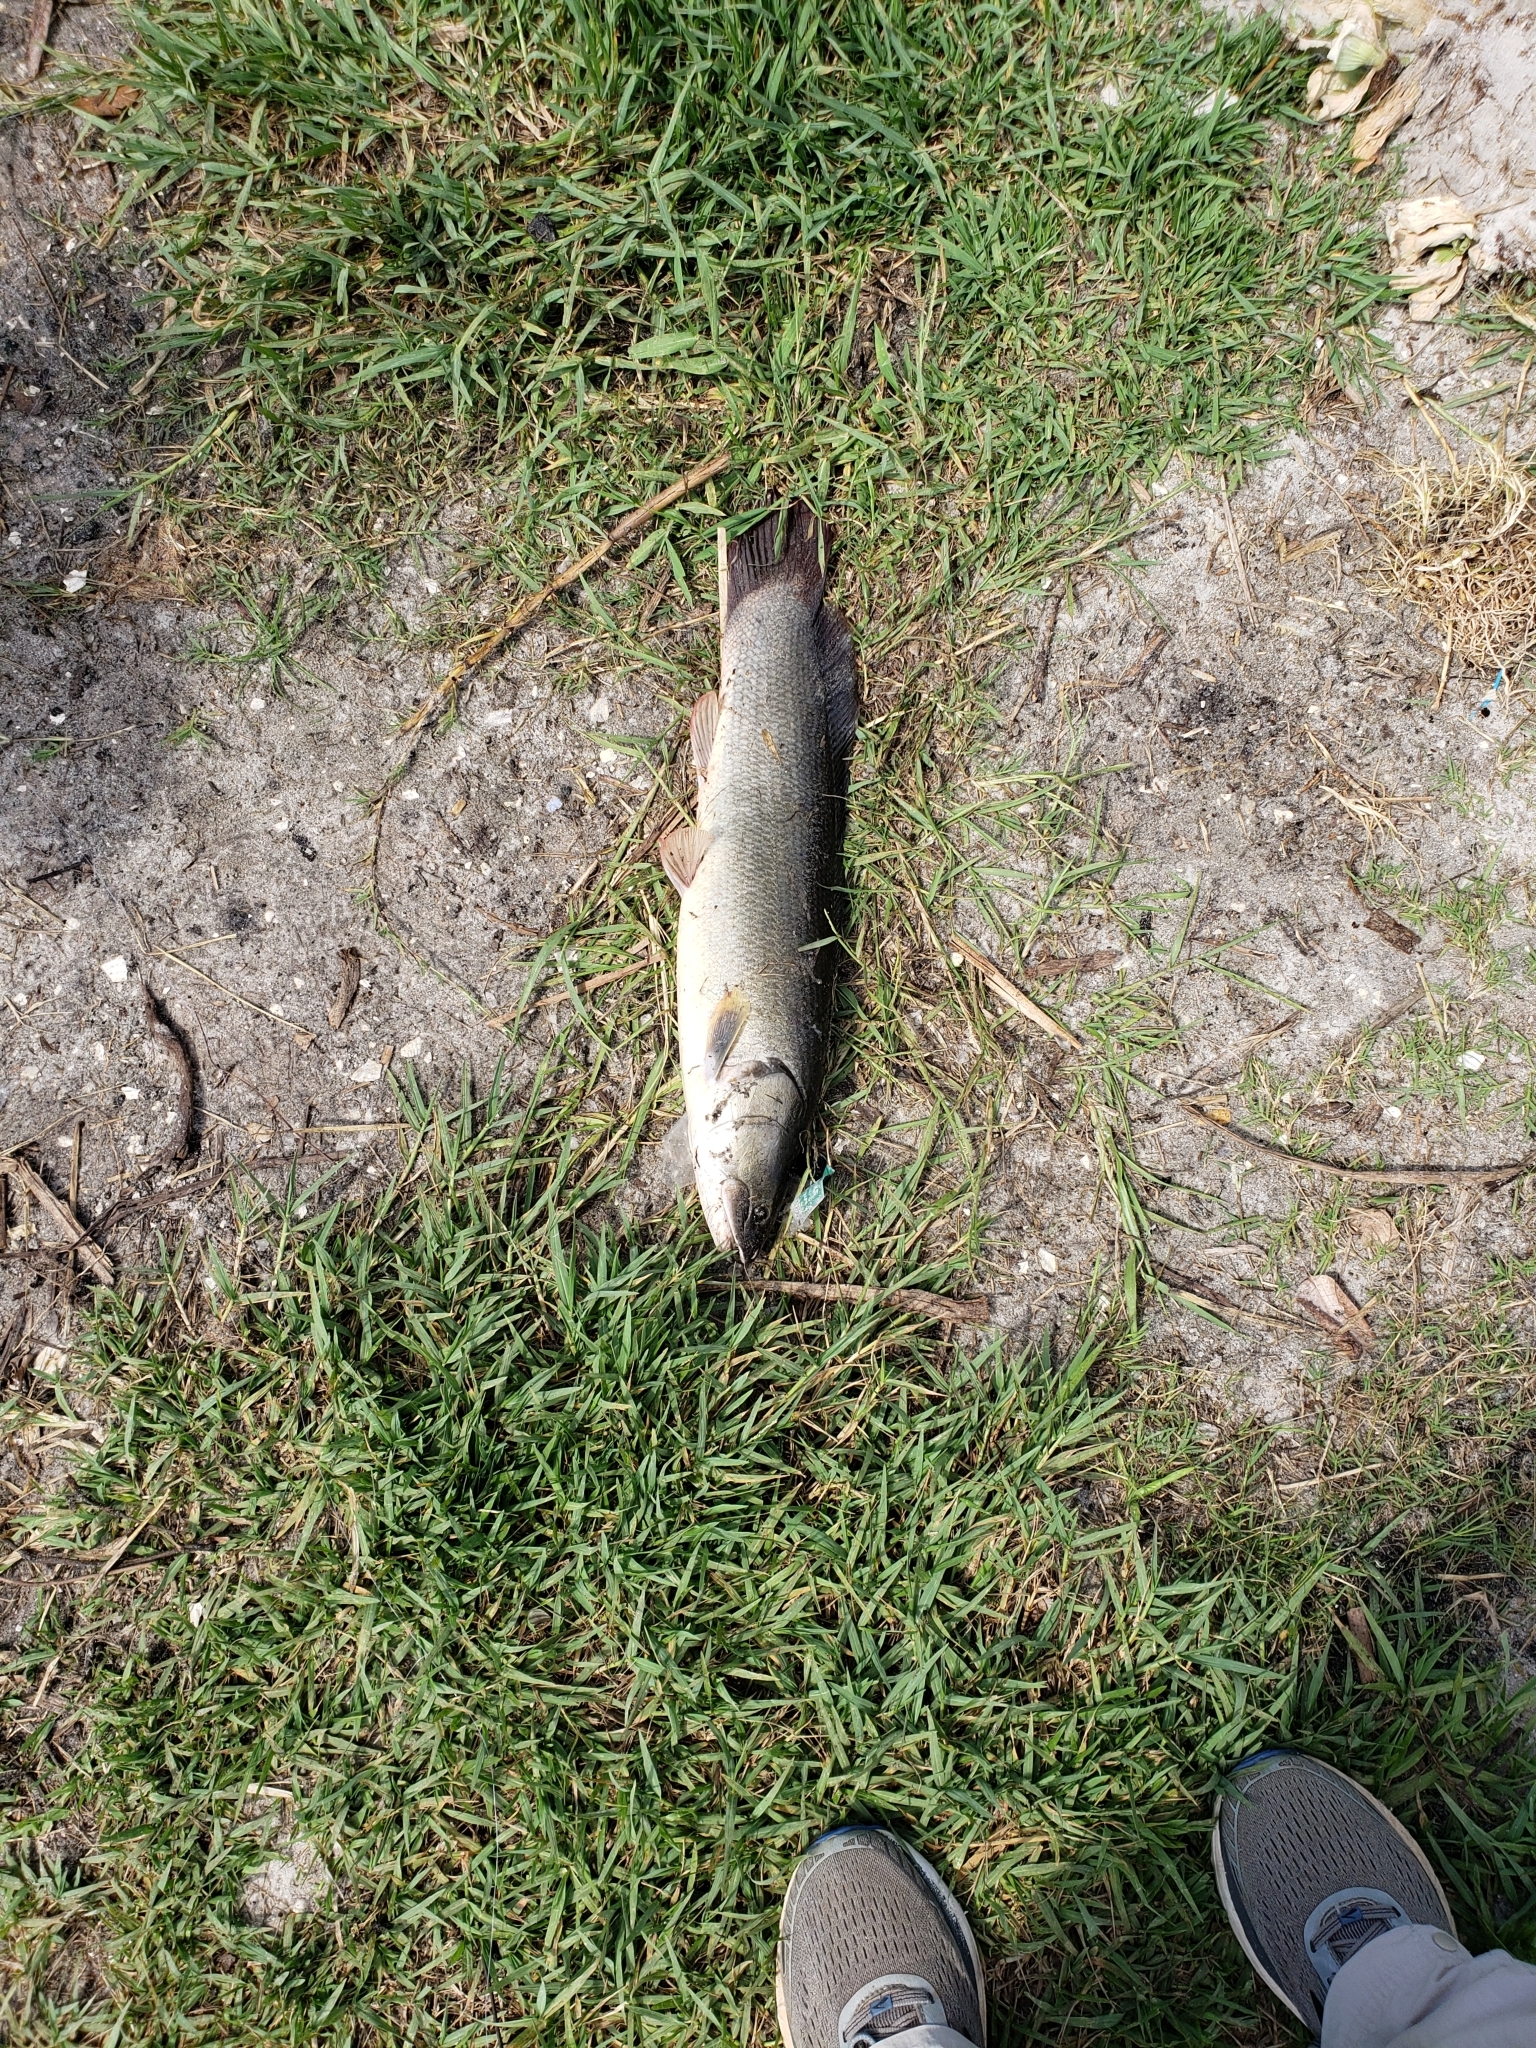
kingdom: Animalia
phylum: Chordata
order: Amiiformes
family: Amiidae
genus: Amia
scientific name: Amia calva
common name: Bowfin
